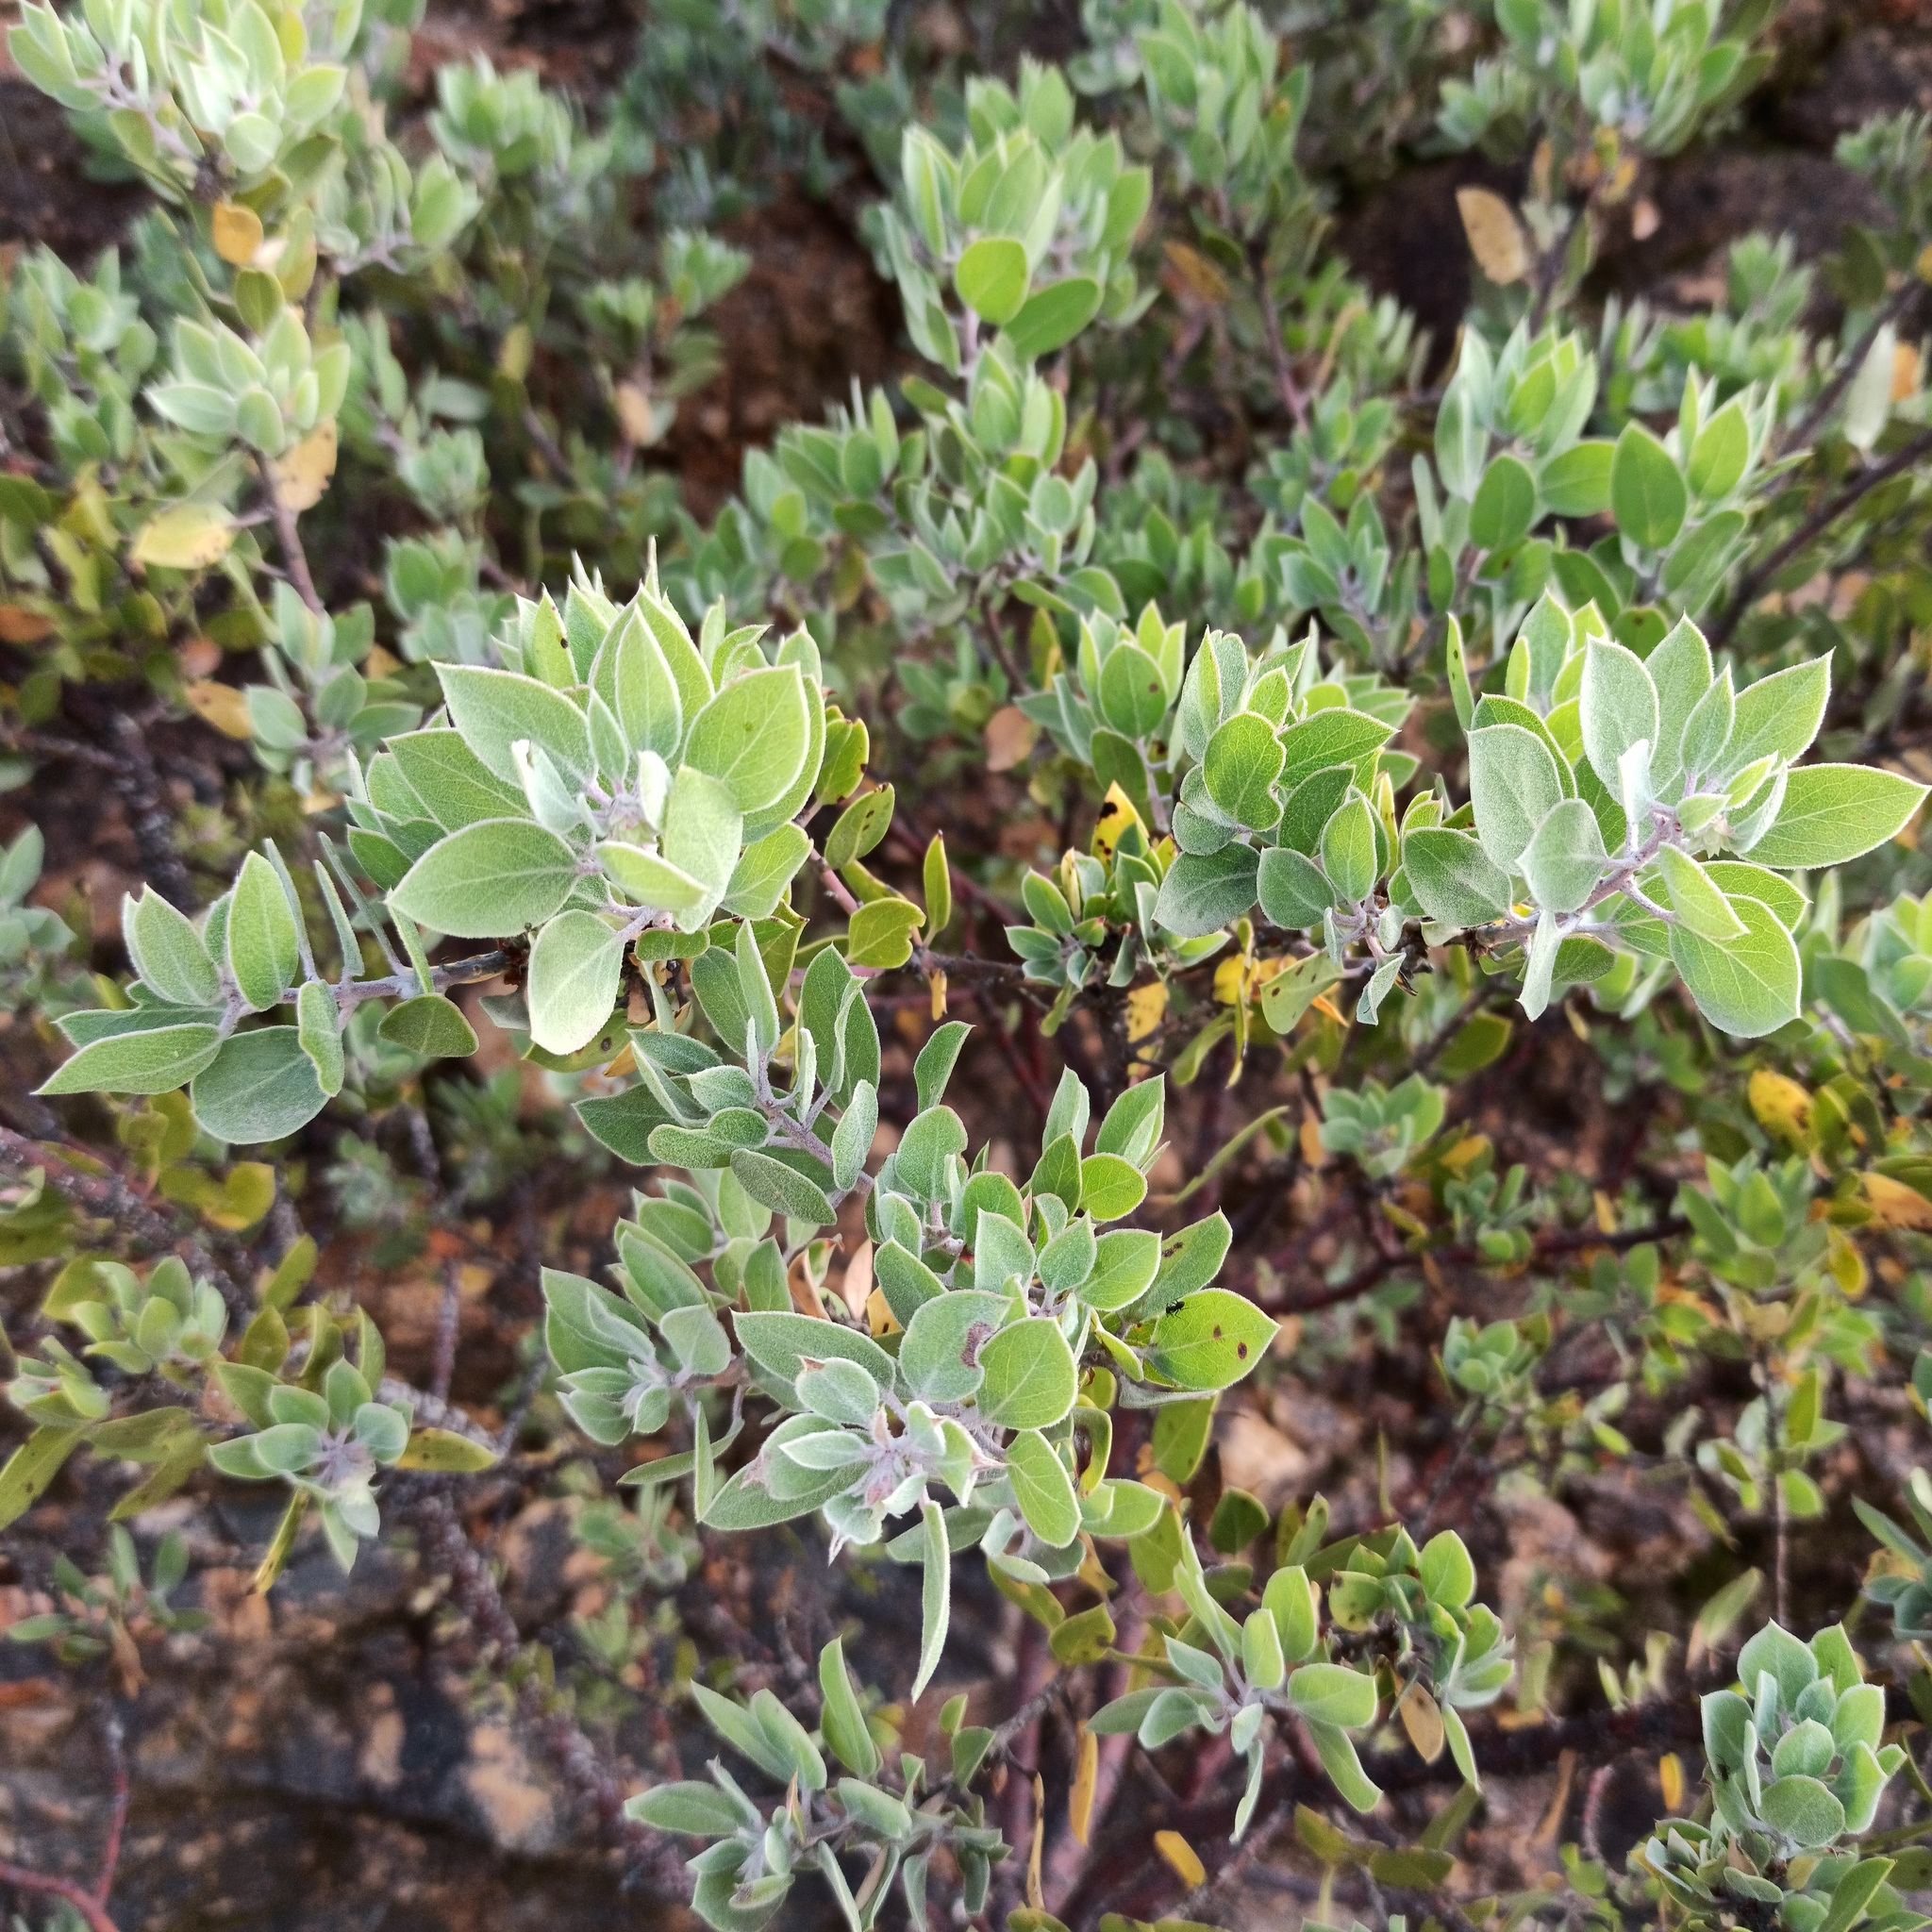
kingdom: Plantae
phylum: Tracheophyta
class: Magnoliopsida
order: Ericales
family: Ericaceae
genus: Arctostaphylos
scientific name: Arctostaphylos pungens
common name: Mexican manzanita
